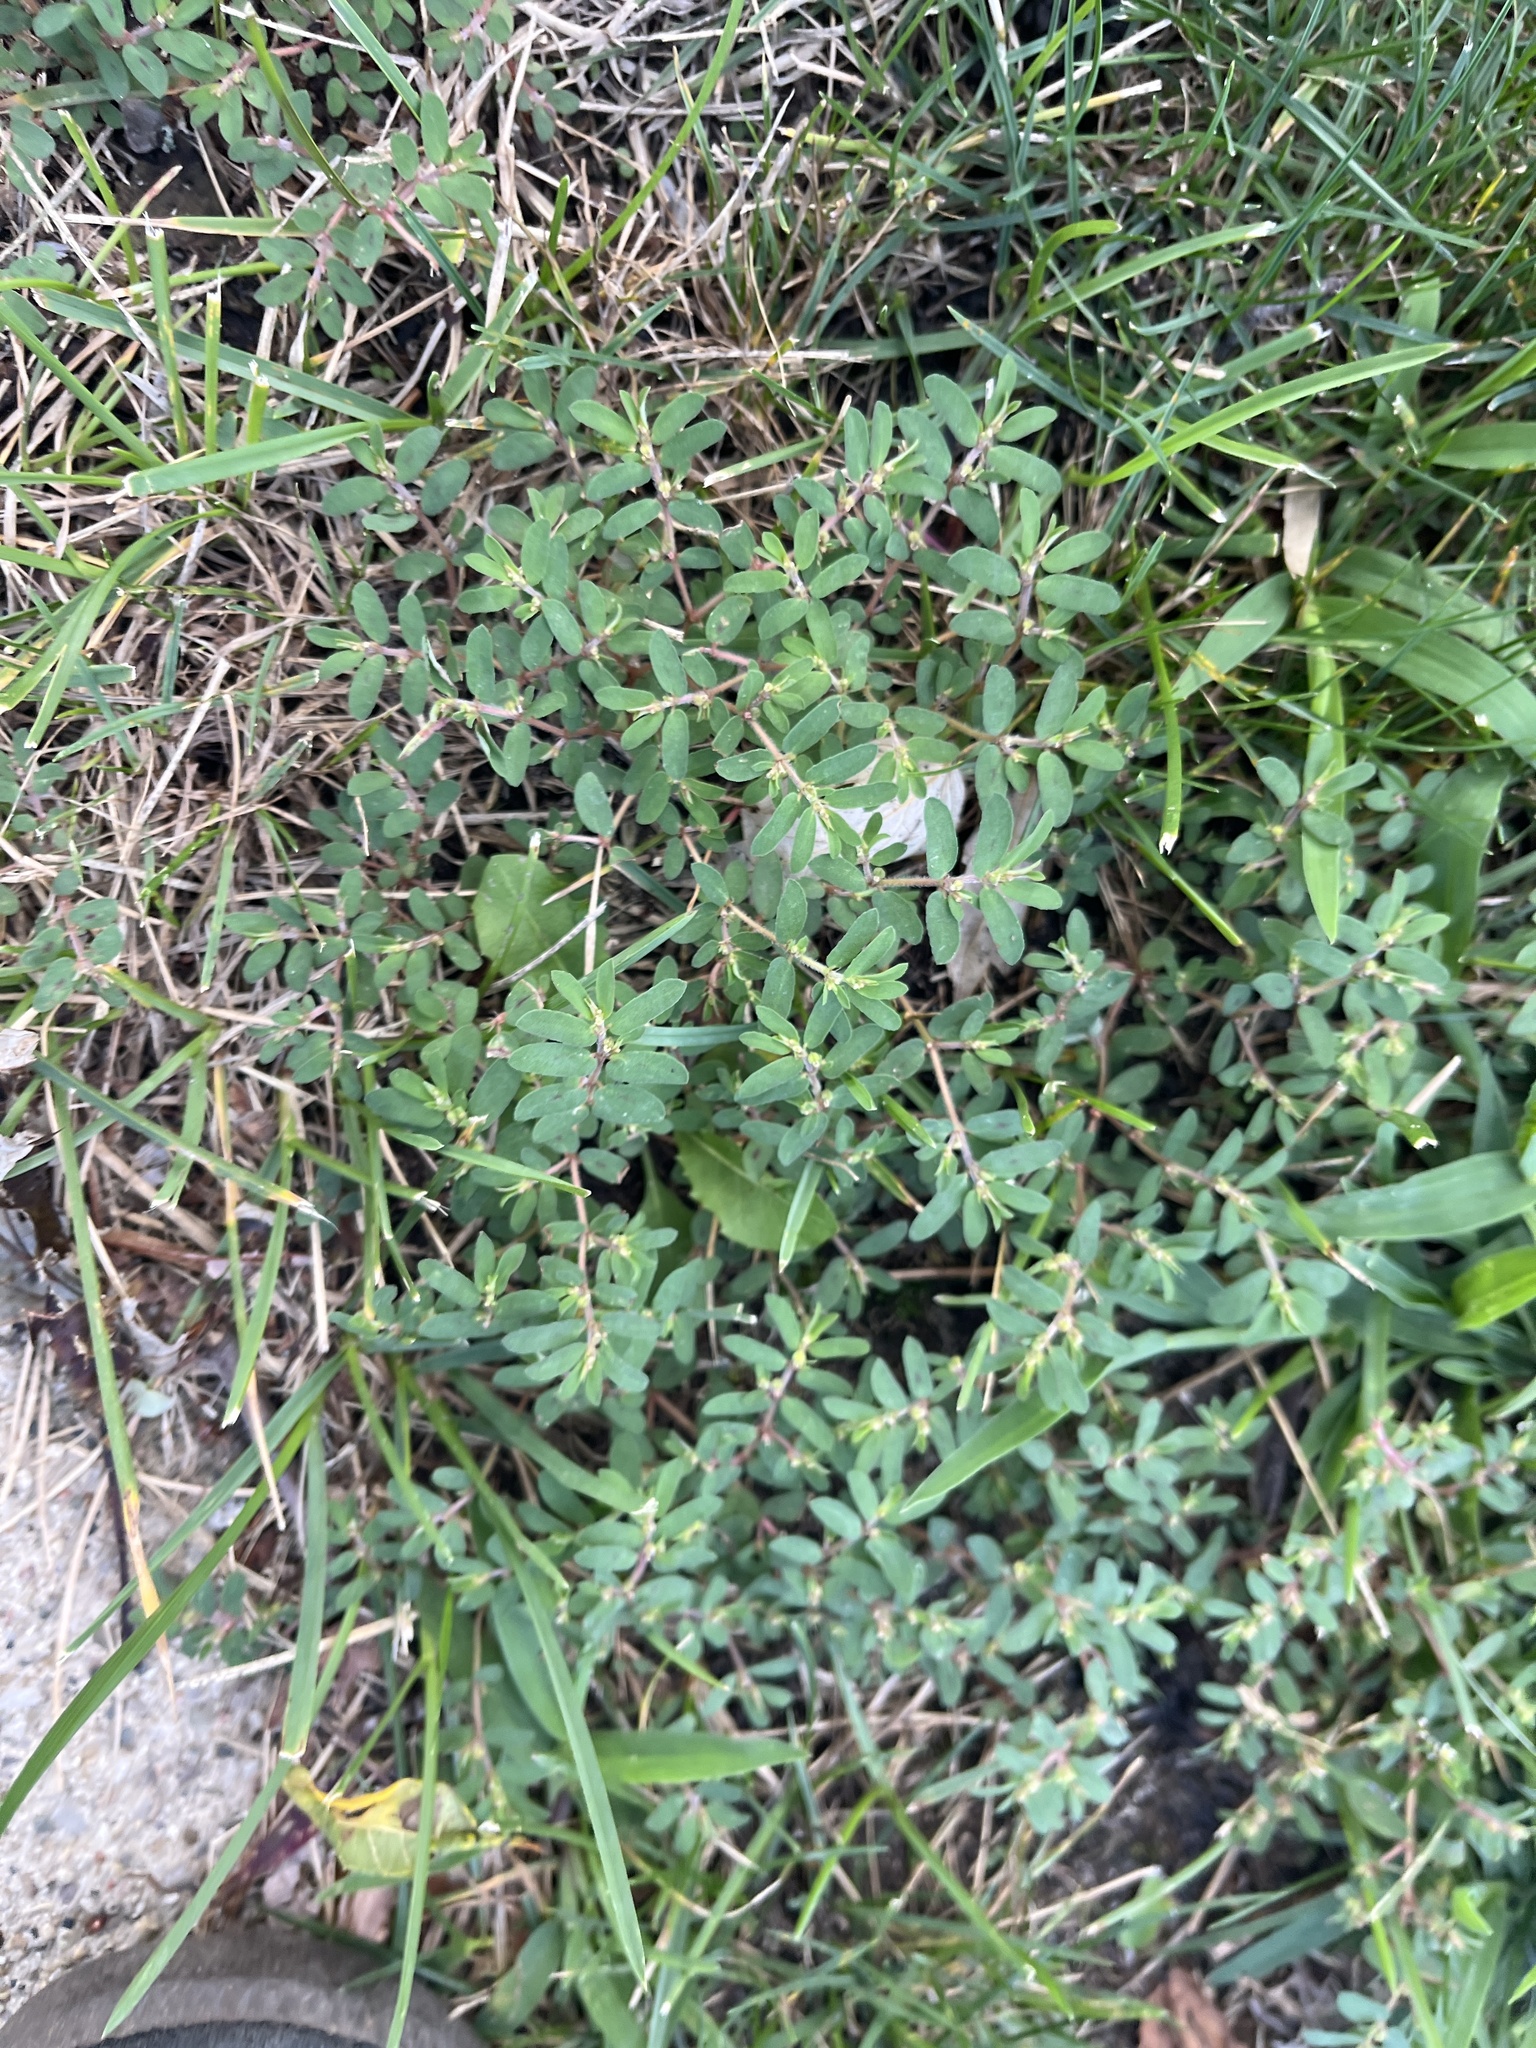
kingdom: Plantae
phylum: Tracheophyta
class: Magnoliopsida
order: Malpighiales
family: Euphorbiaceae
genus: Euphorbia
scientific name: Euphorbia maculata
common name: Spotted spurge
